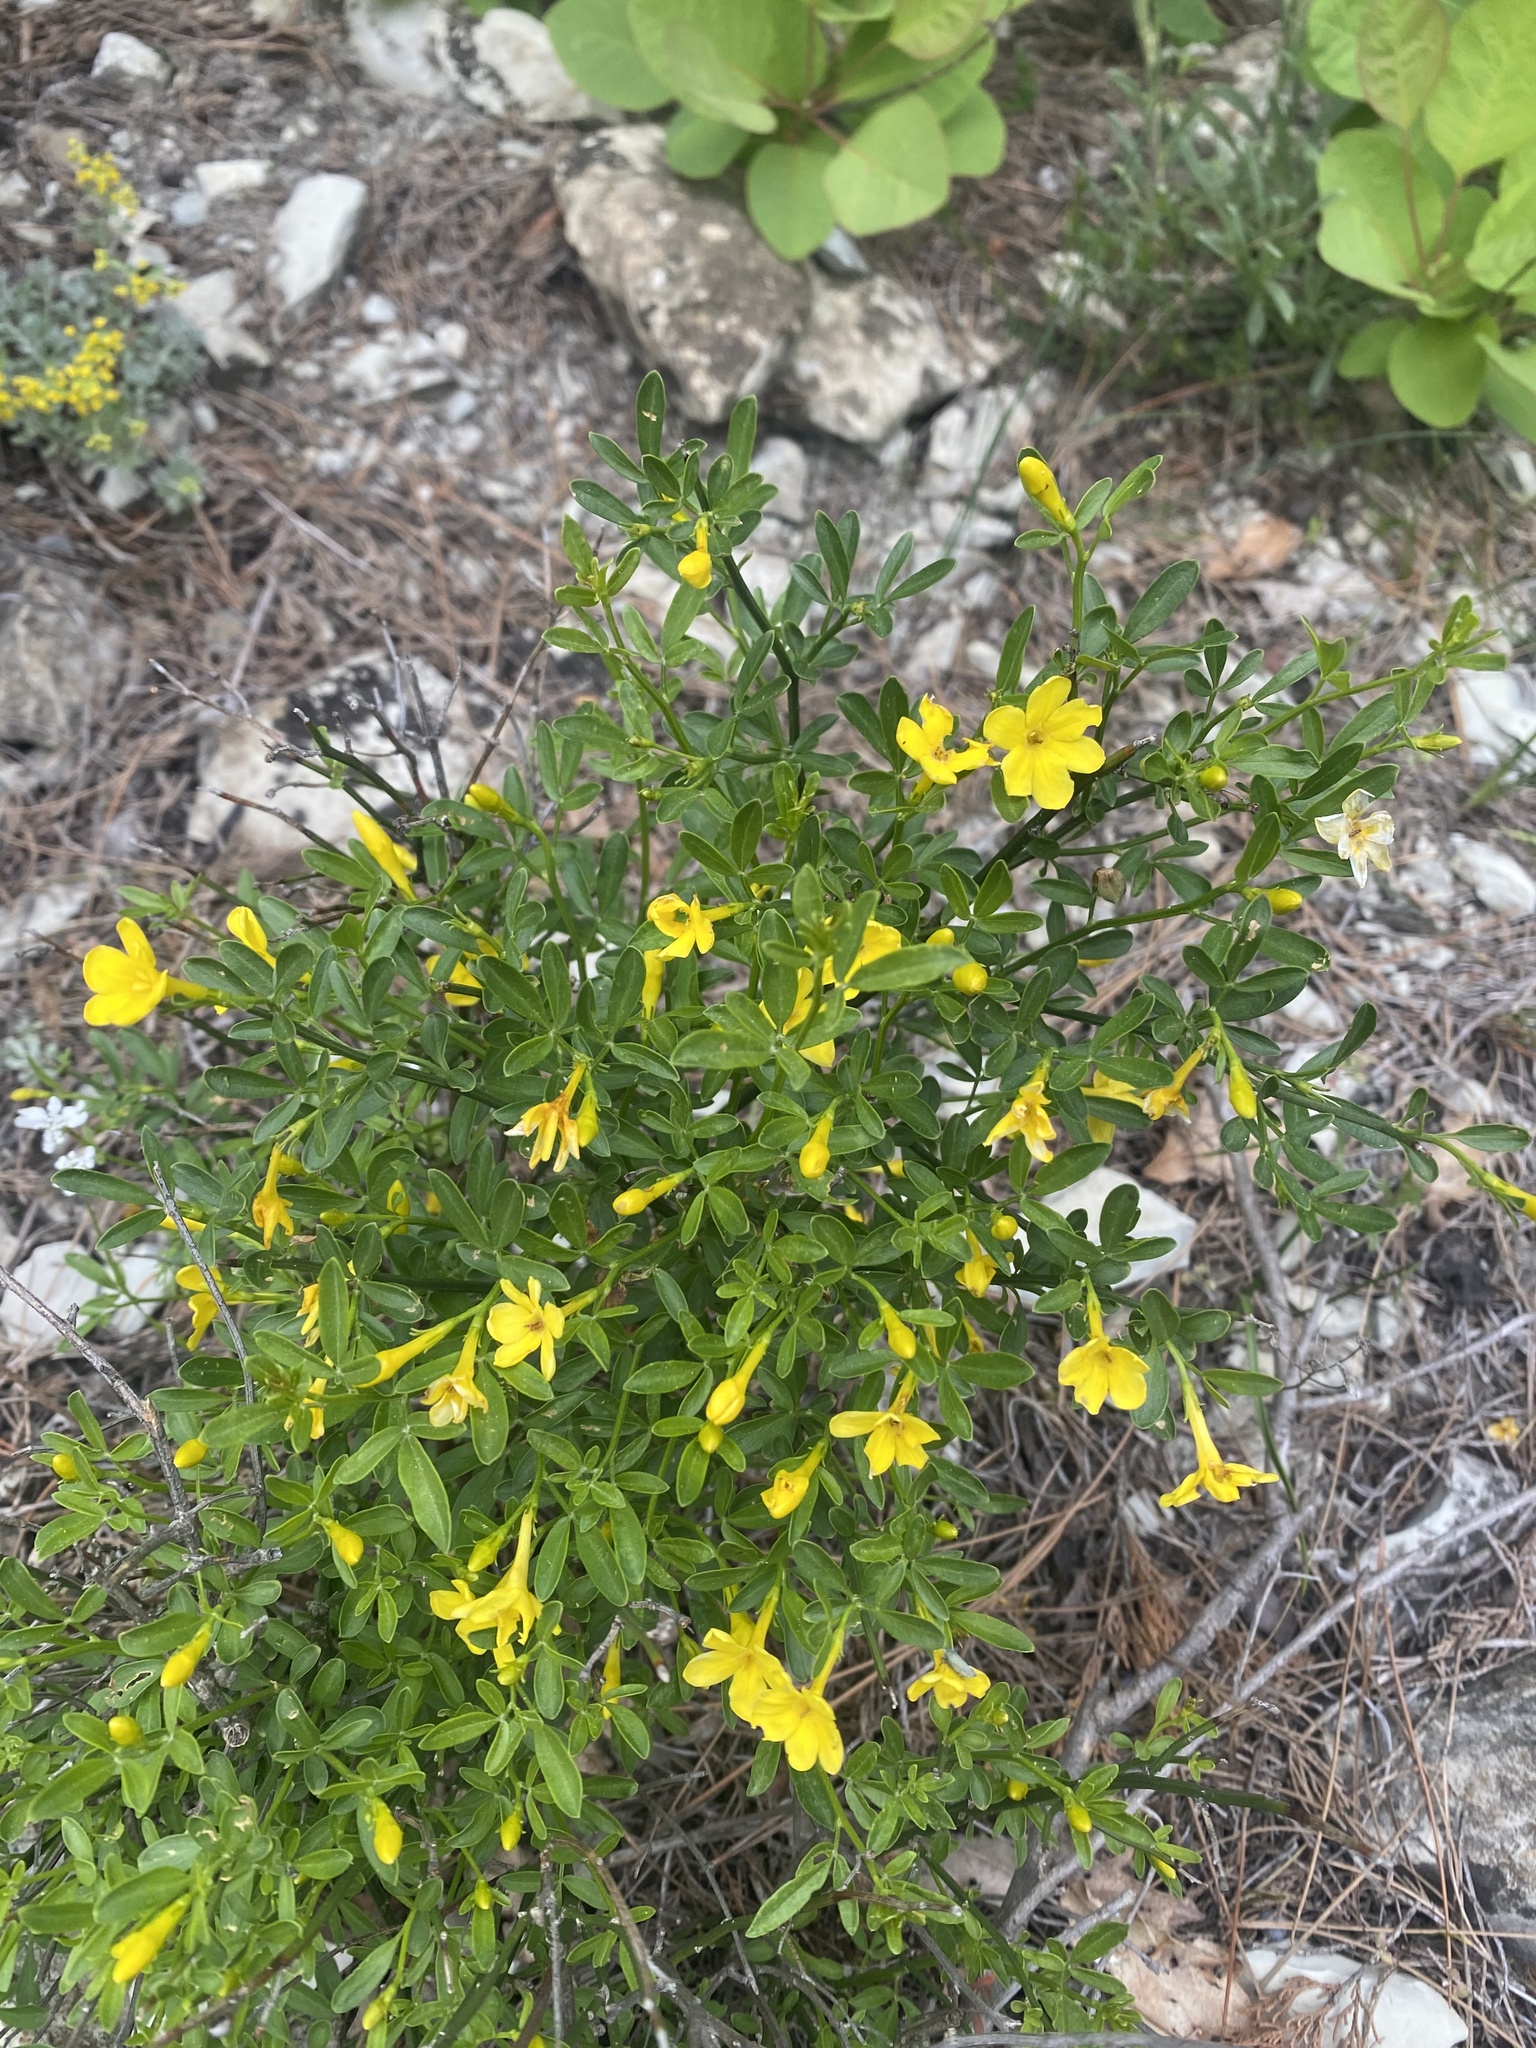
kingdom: Plantae
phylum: Tracheophyta
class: Magnoliopsida
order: Lamiales
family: Oleaceae
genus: Chrysojasminum
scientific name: Chrysojasminum fruticans
